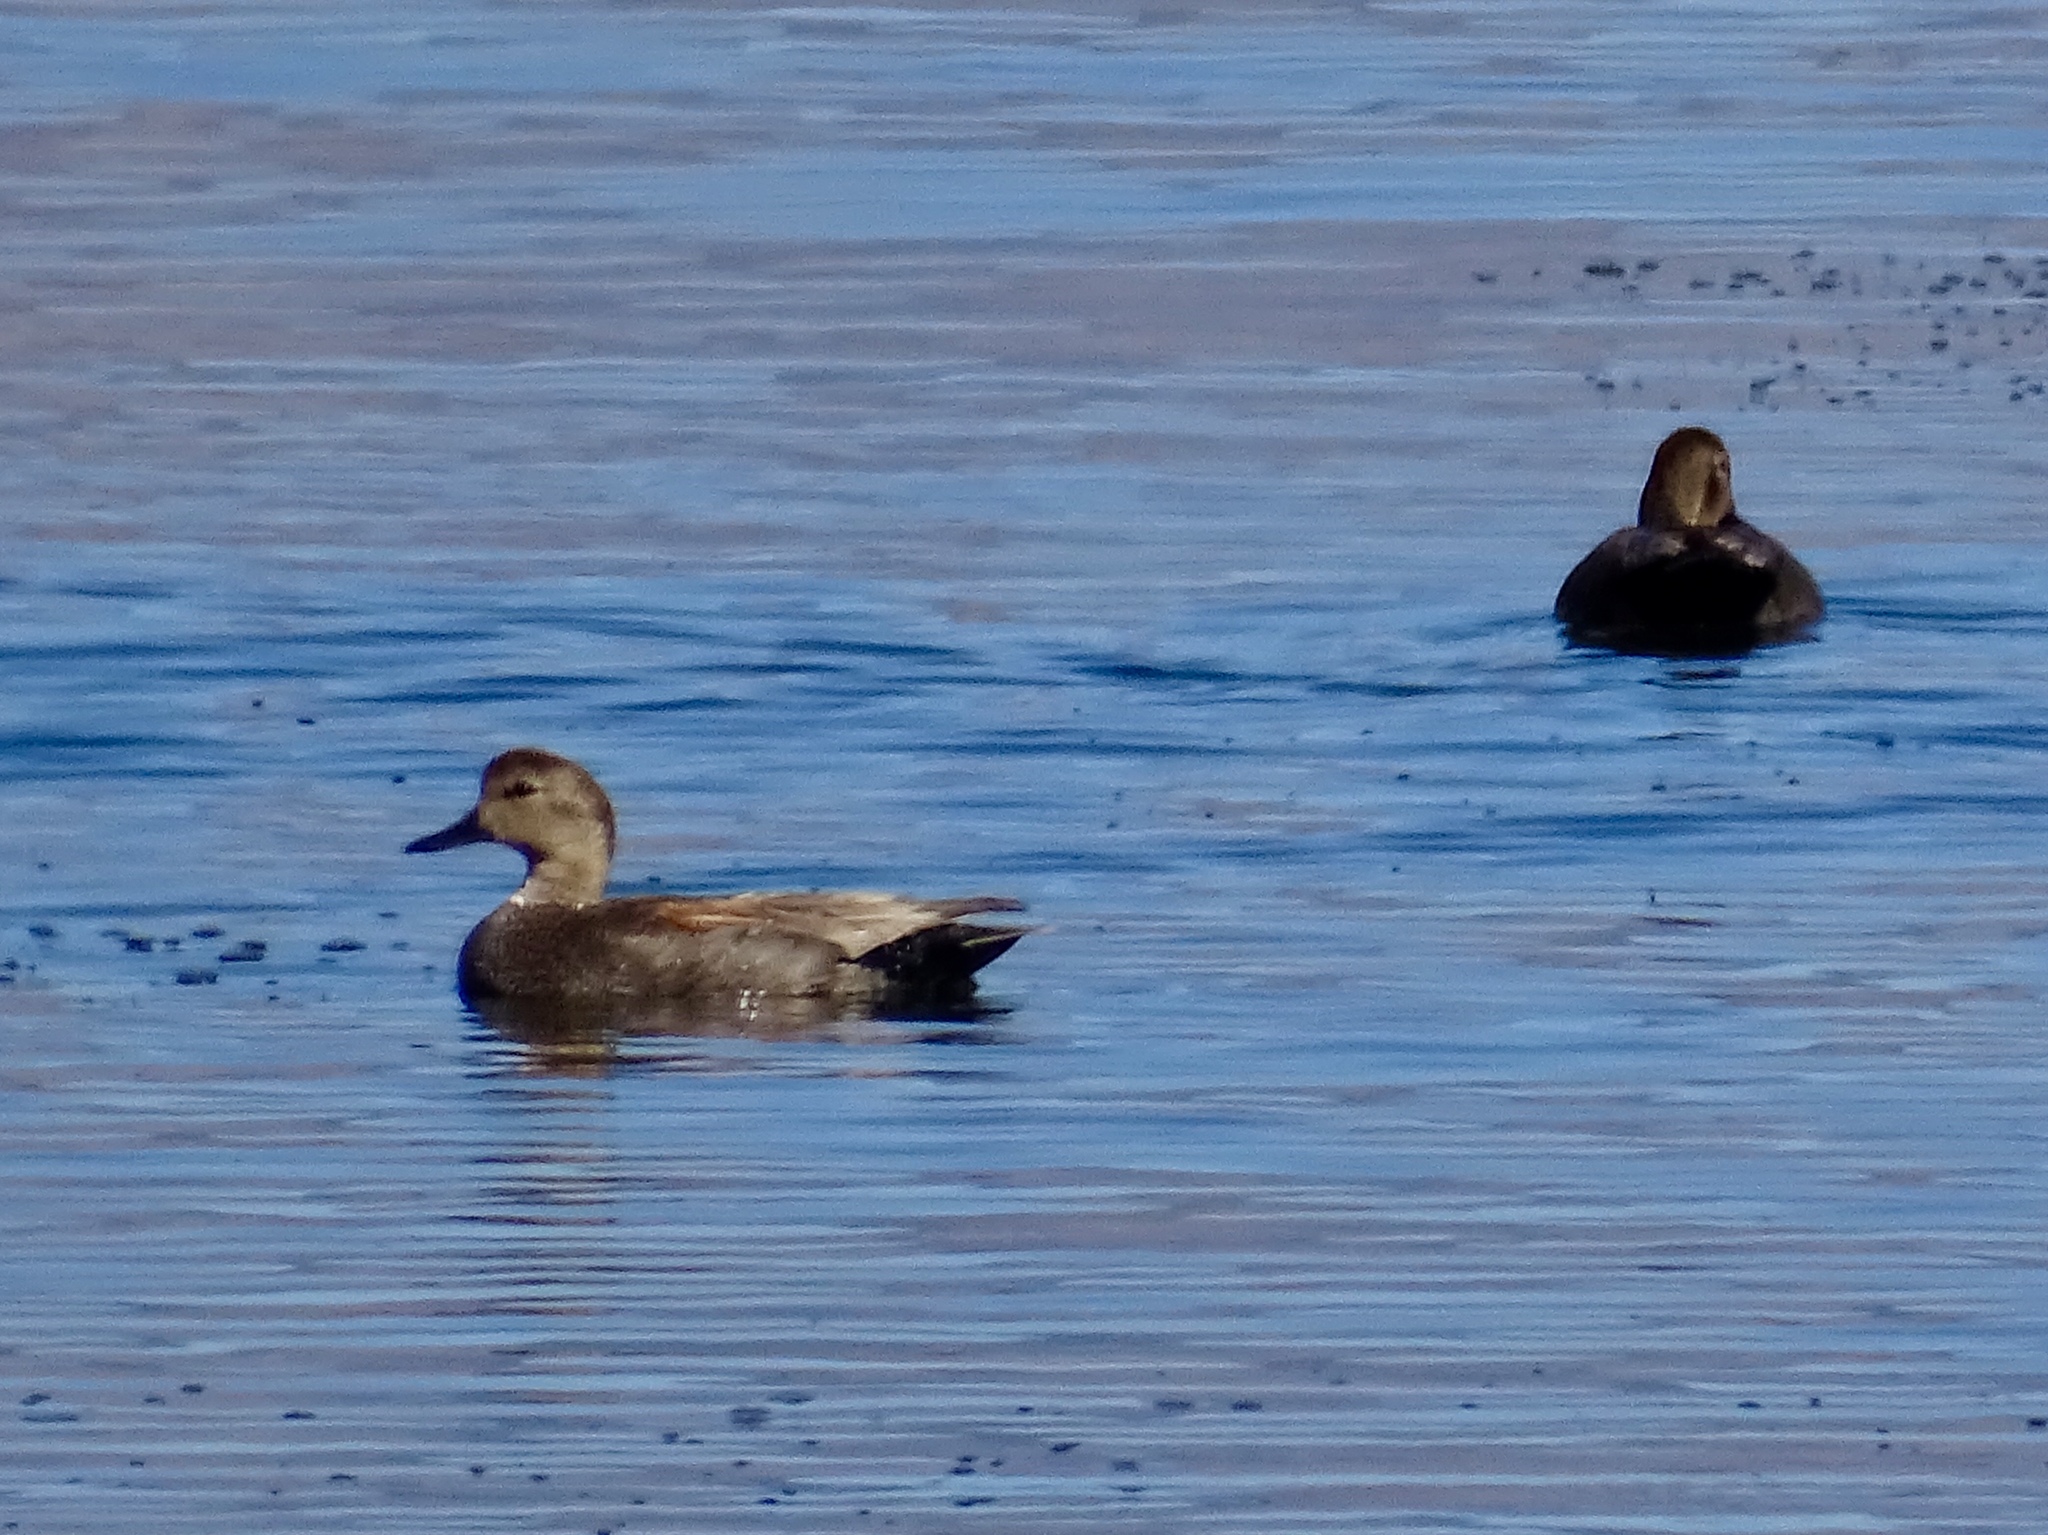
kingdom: Animalia
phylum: Chordata
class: Aves
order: Anseriformes
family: Anatidae
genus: Mareca
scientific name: Mareca strepera
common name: Gadwall
